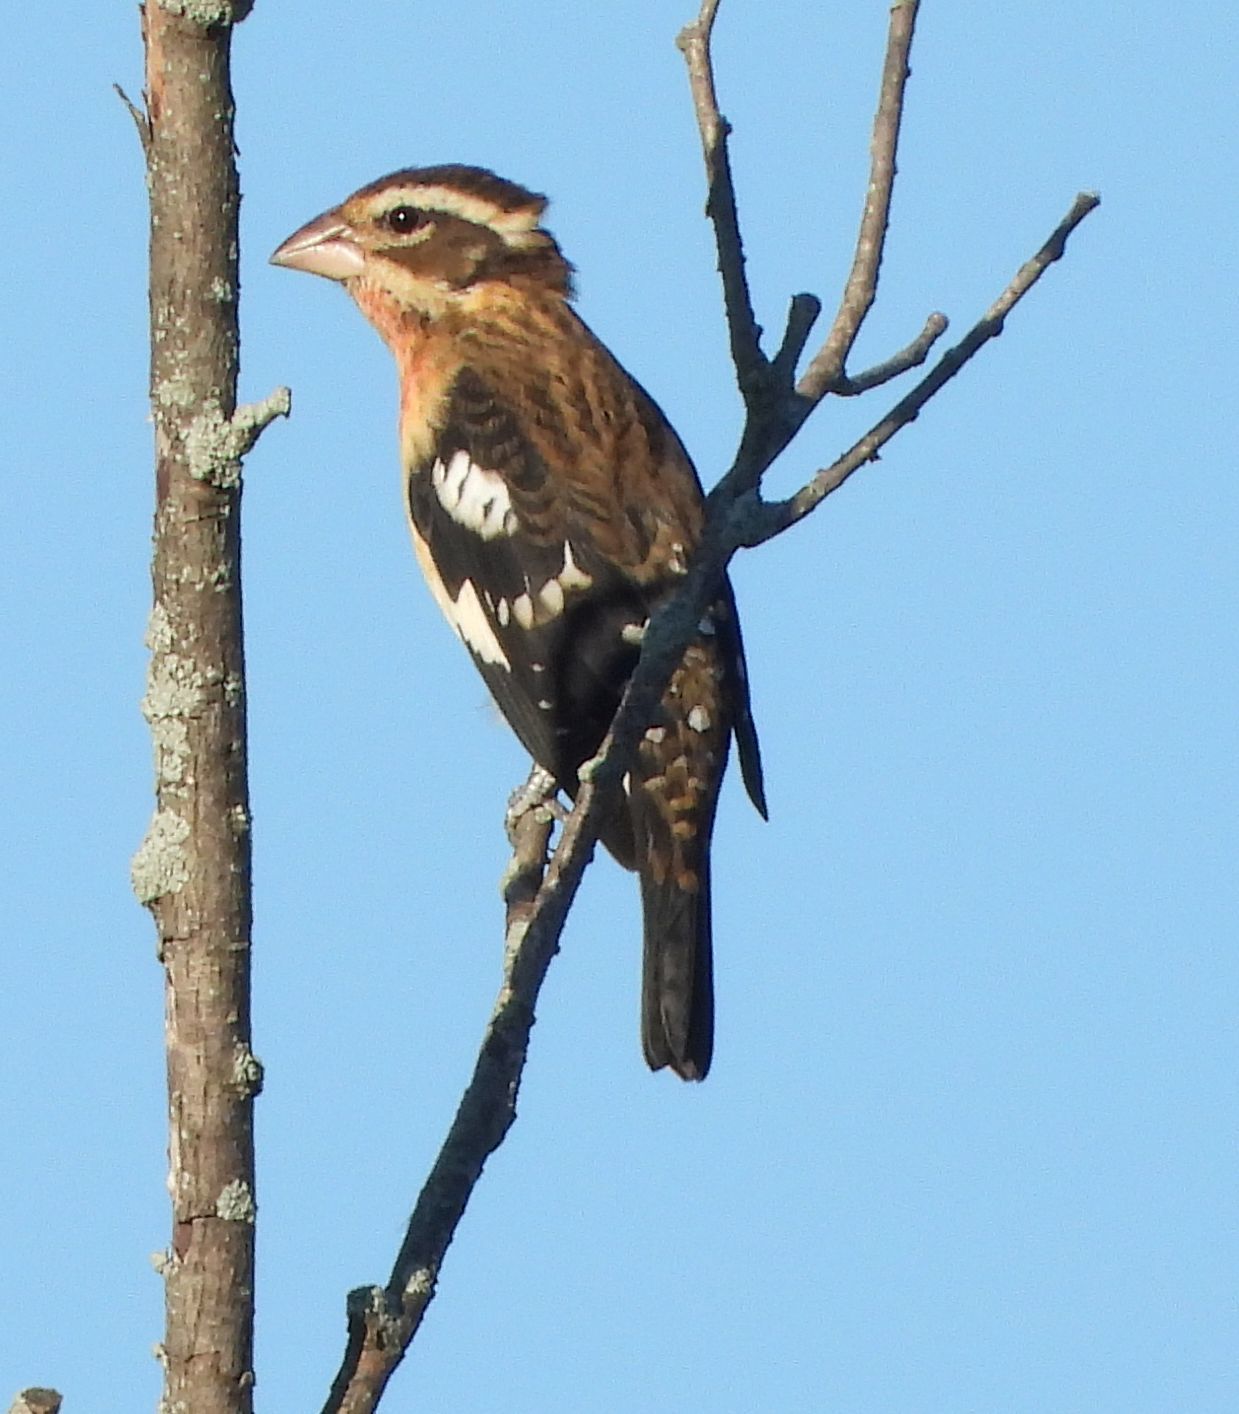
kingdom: Animalia
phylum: Chordata
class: Aves
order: Passeriformes
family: Cardinalidae
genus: Pheucticus
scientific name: Pheucticus ludovicianus
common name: Rose-breasted grosbeak
